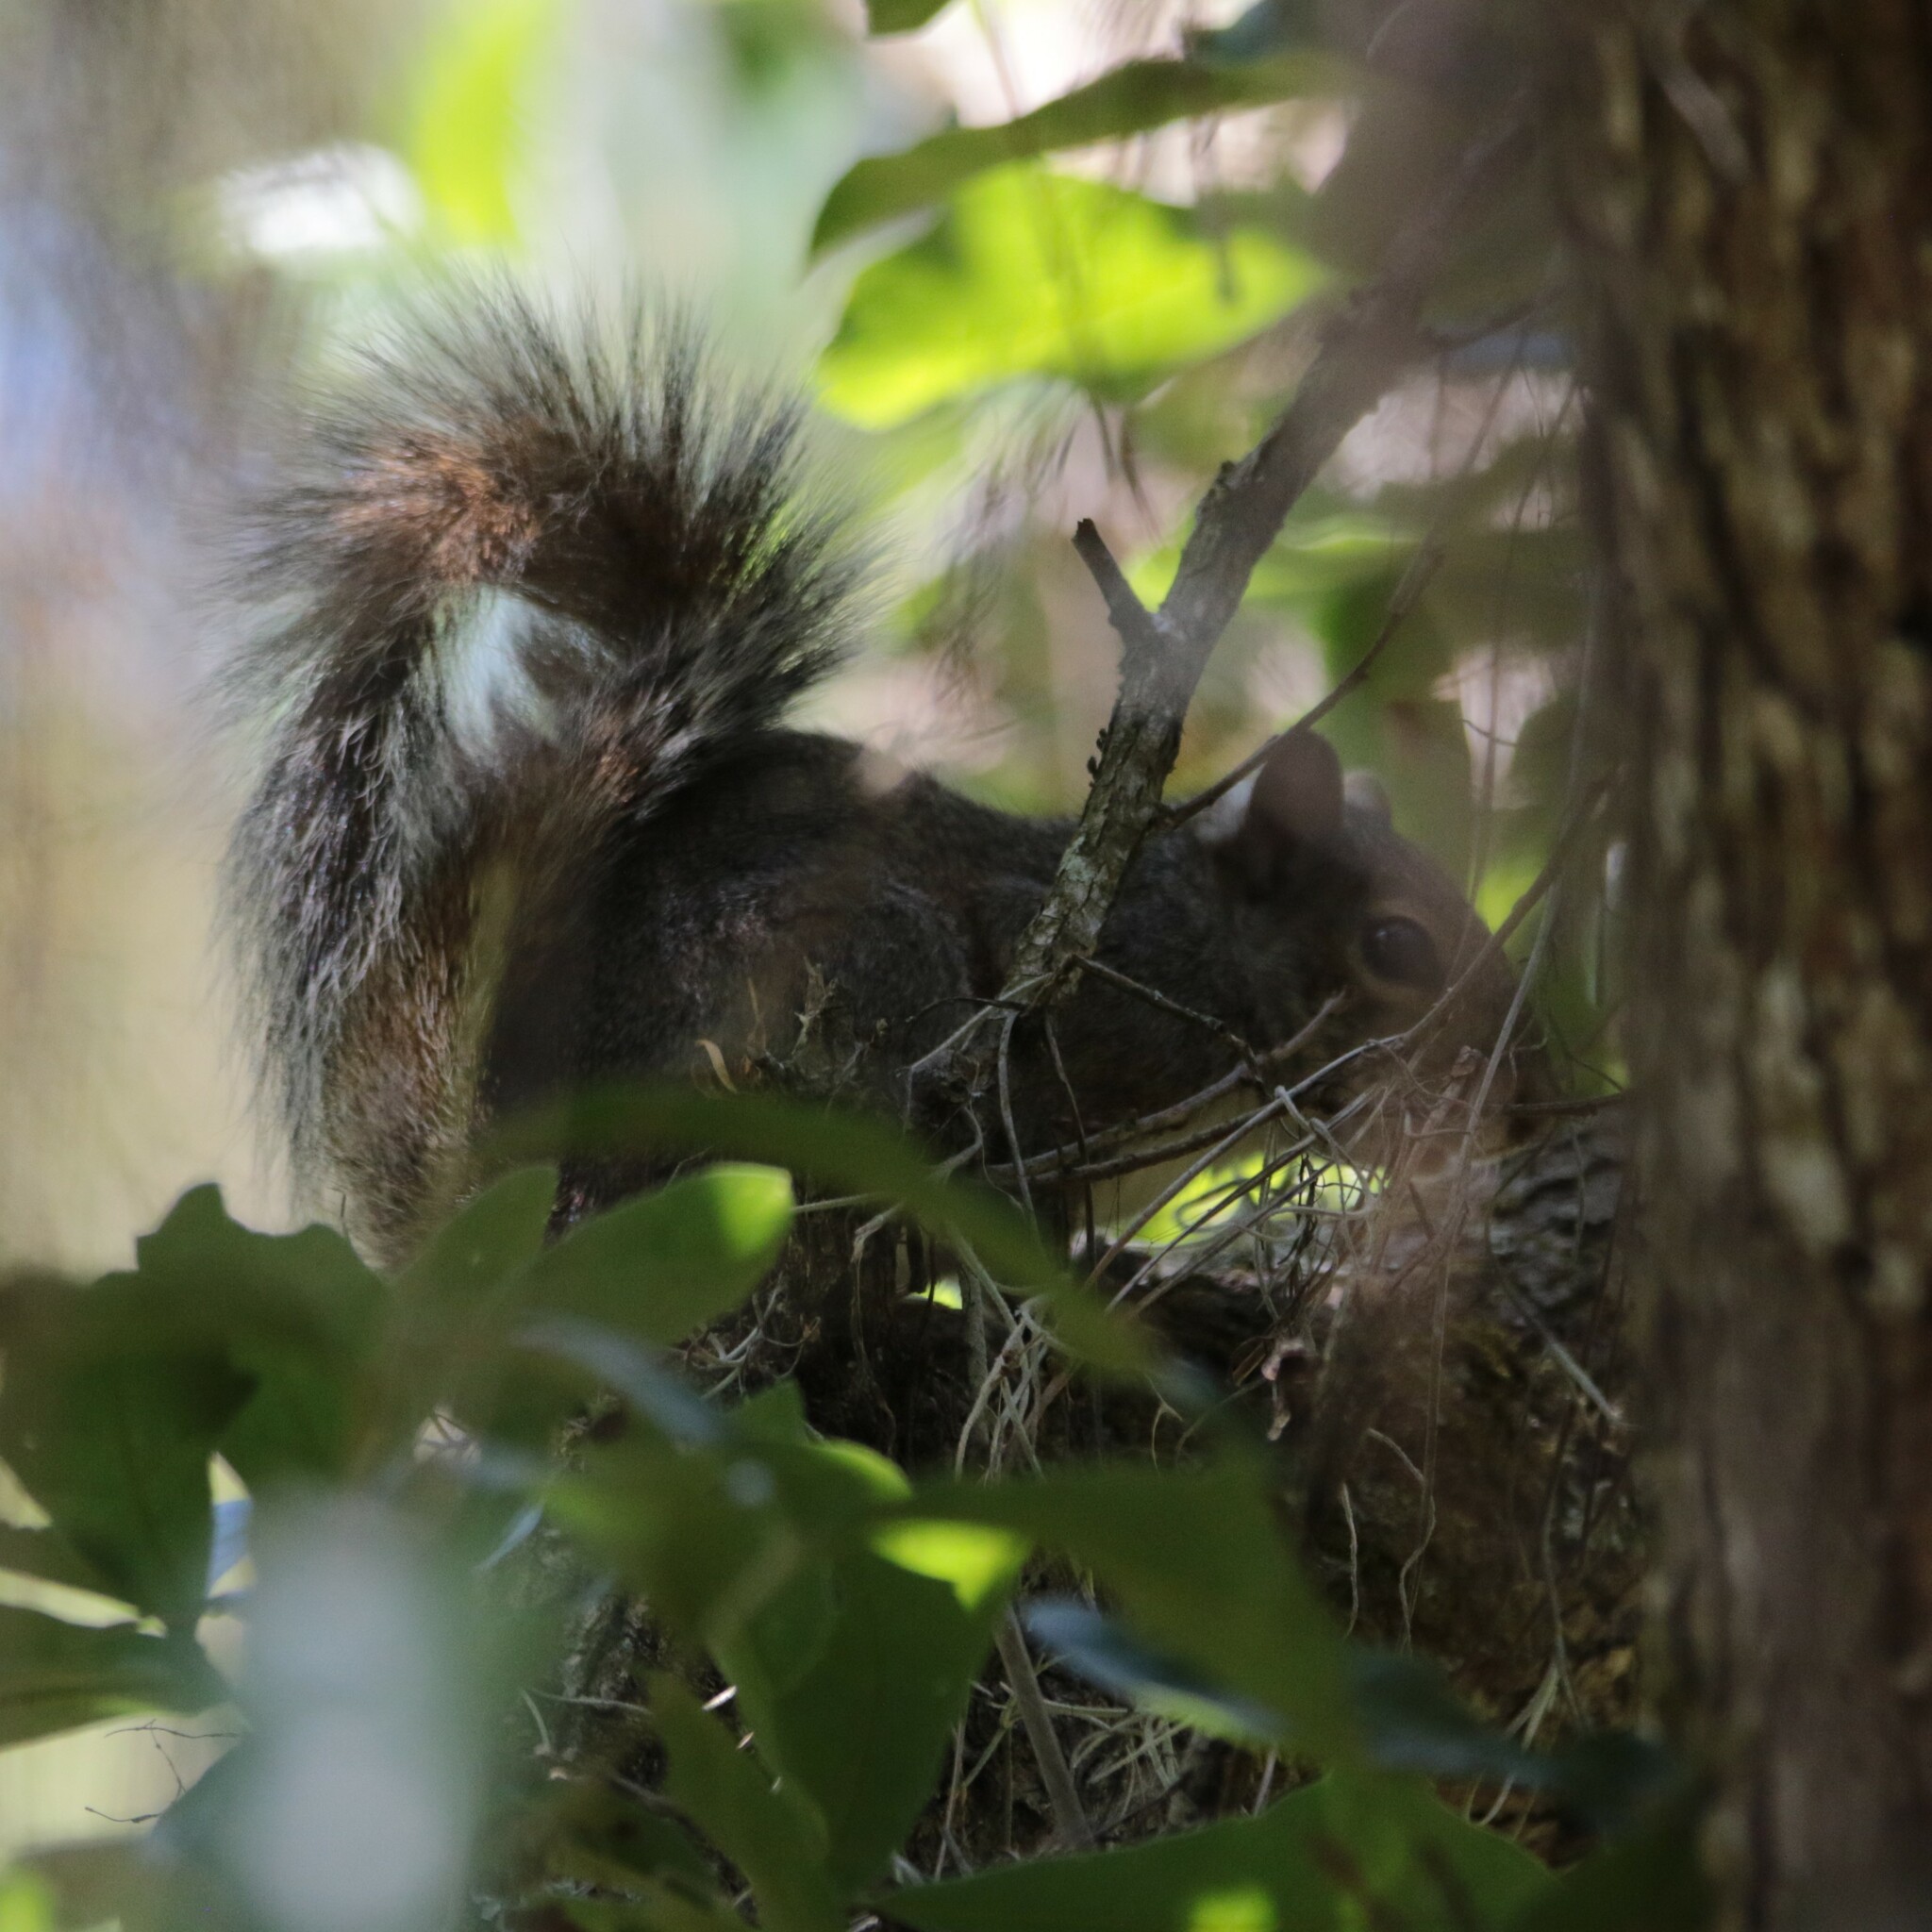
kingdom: Animalia
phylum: Chordata
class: Mammalia
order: Rodentia
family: Sciuridae
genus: Sciurus
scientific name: Sciurus carolinensis
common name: Eastern gray squirrel
